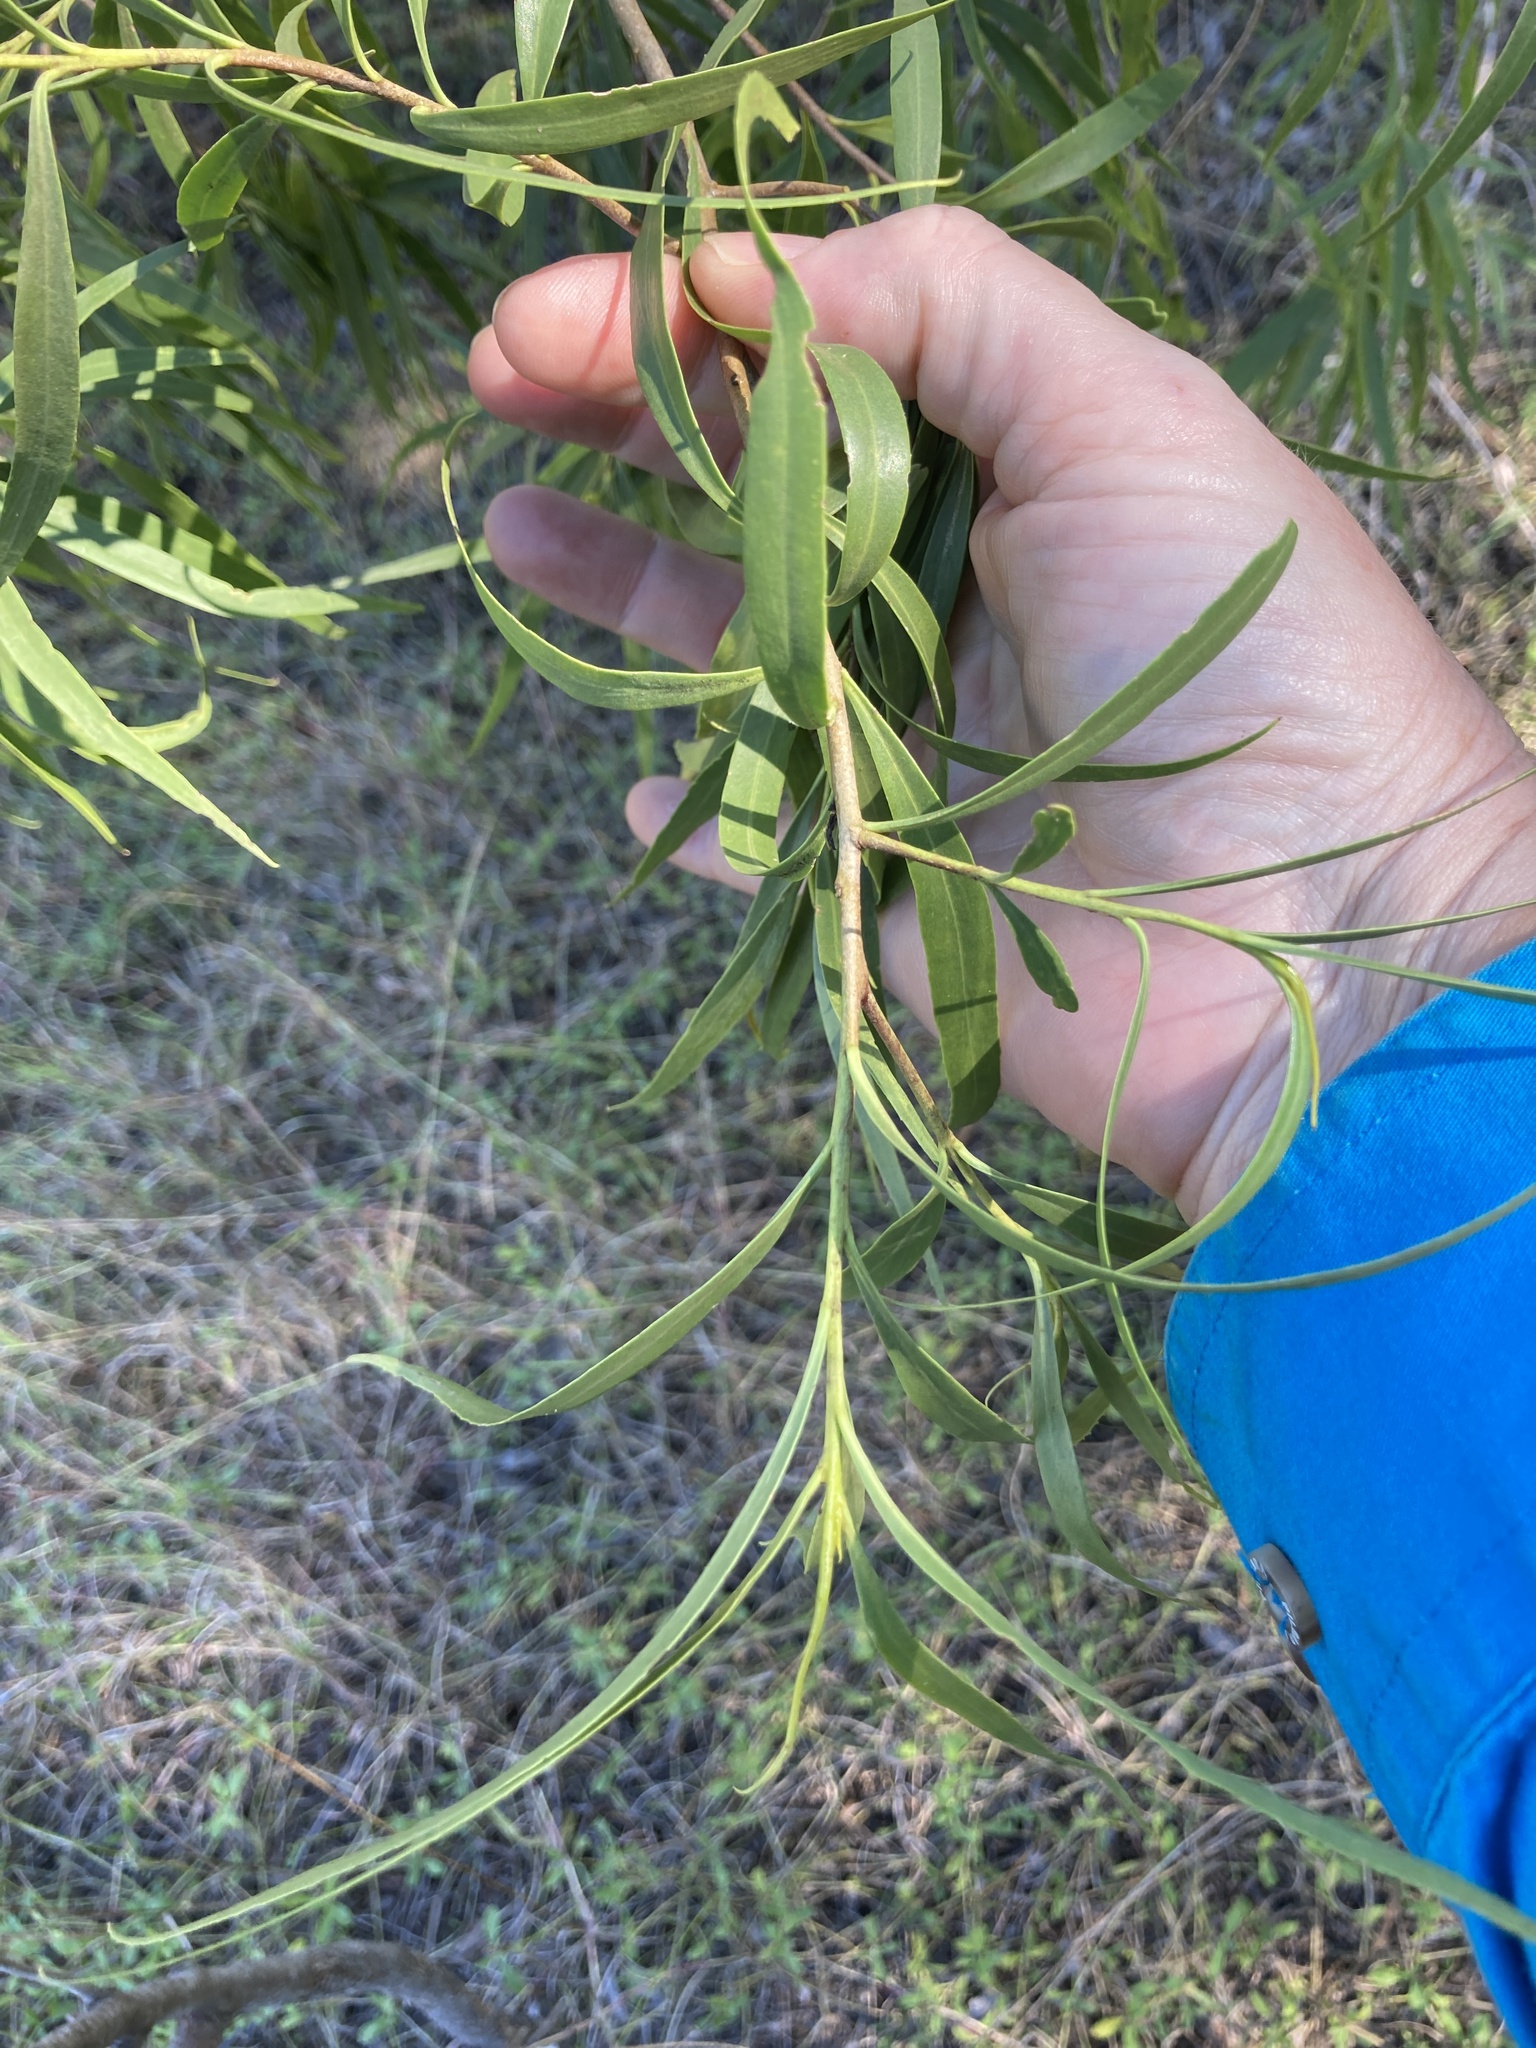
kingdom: Plantae
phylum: Tracheophyta
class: Magnoliopsida
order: Lamiales
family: Scrophulariaceae
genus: Eremophila
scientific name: Eremophila mitchellii
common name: Bastard-sandalwood
